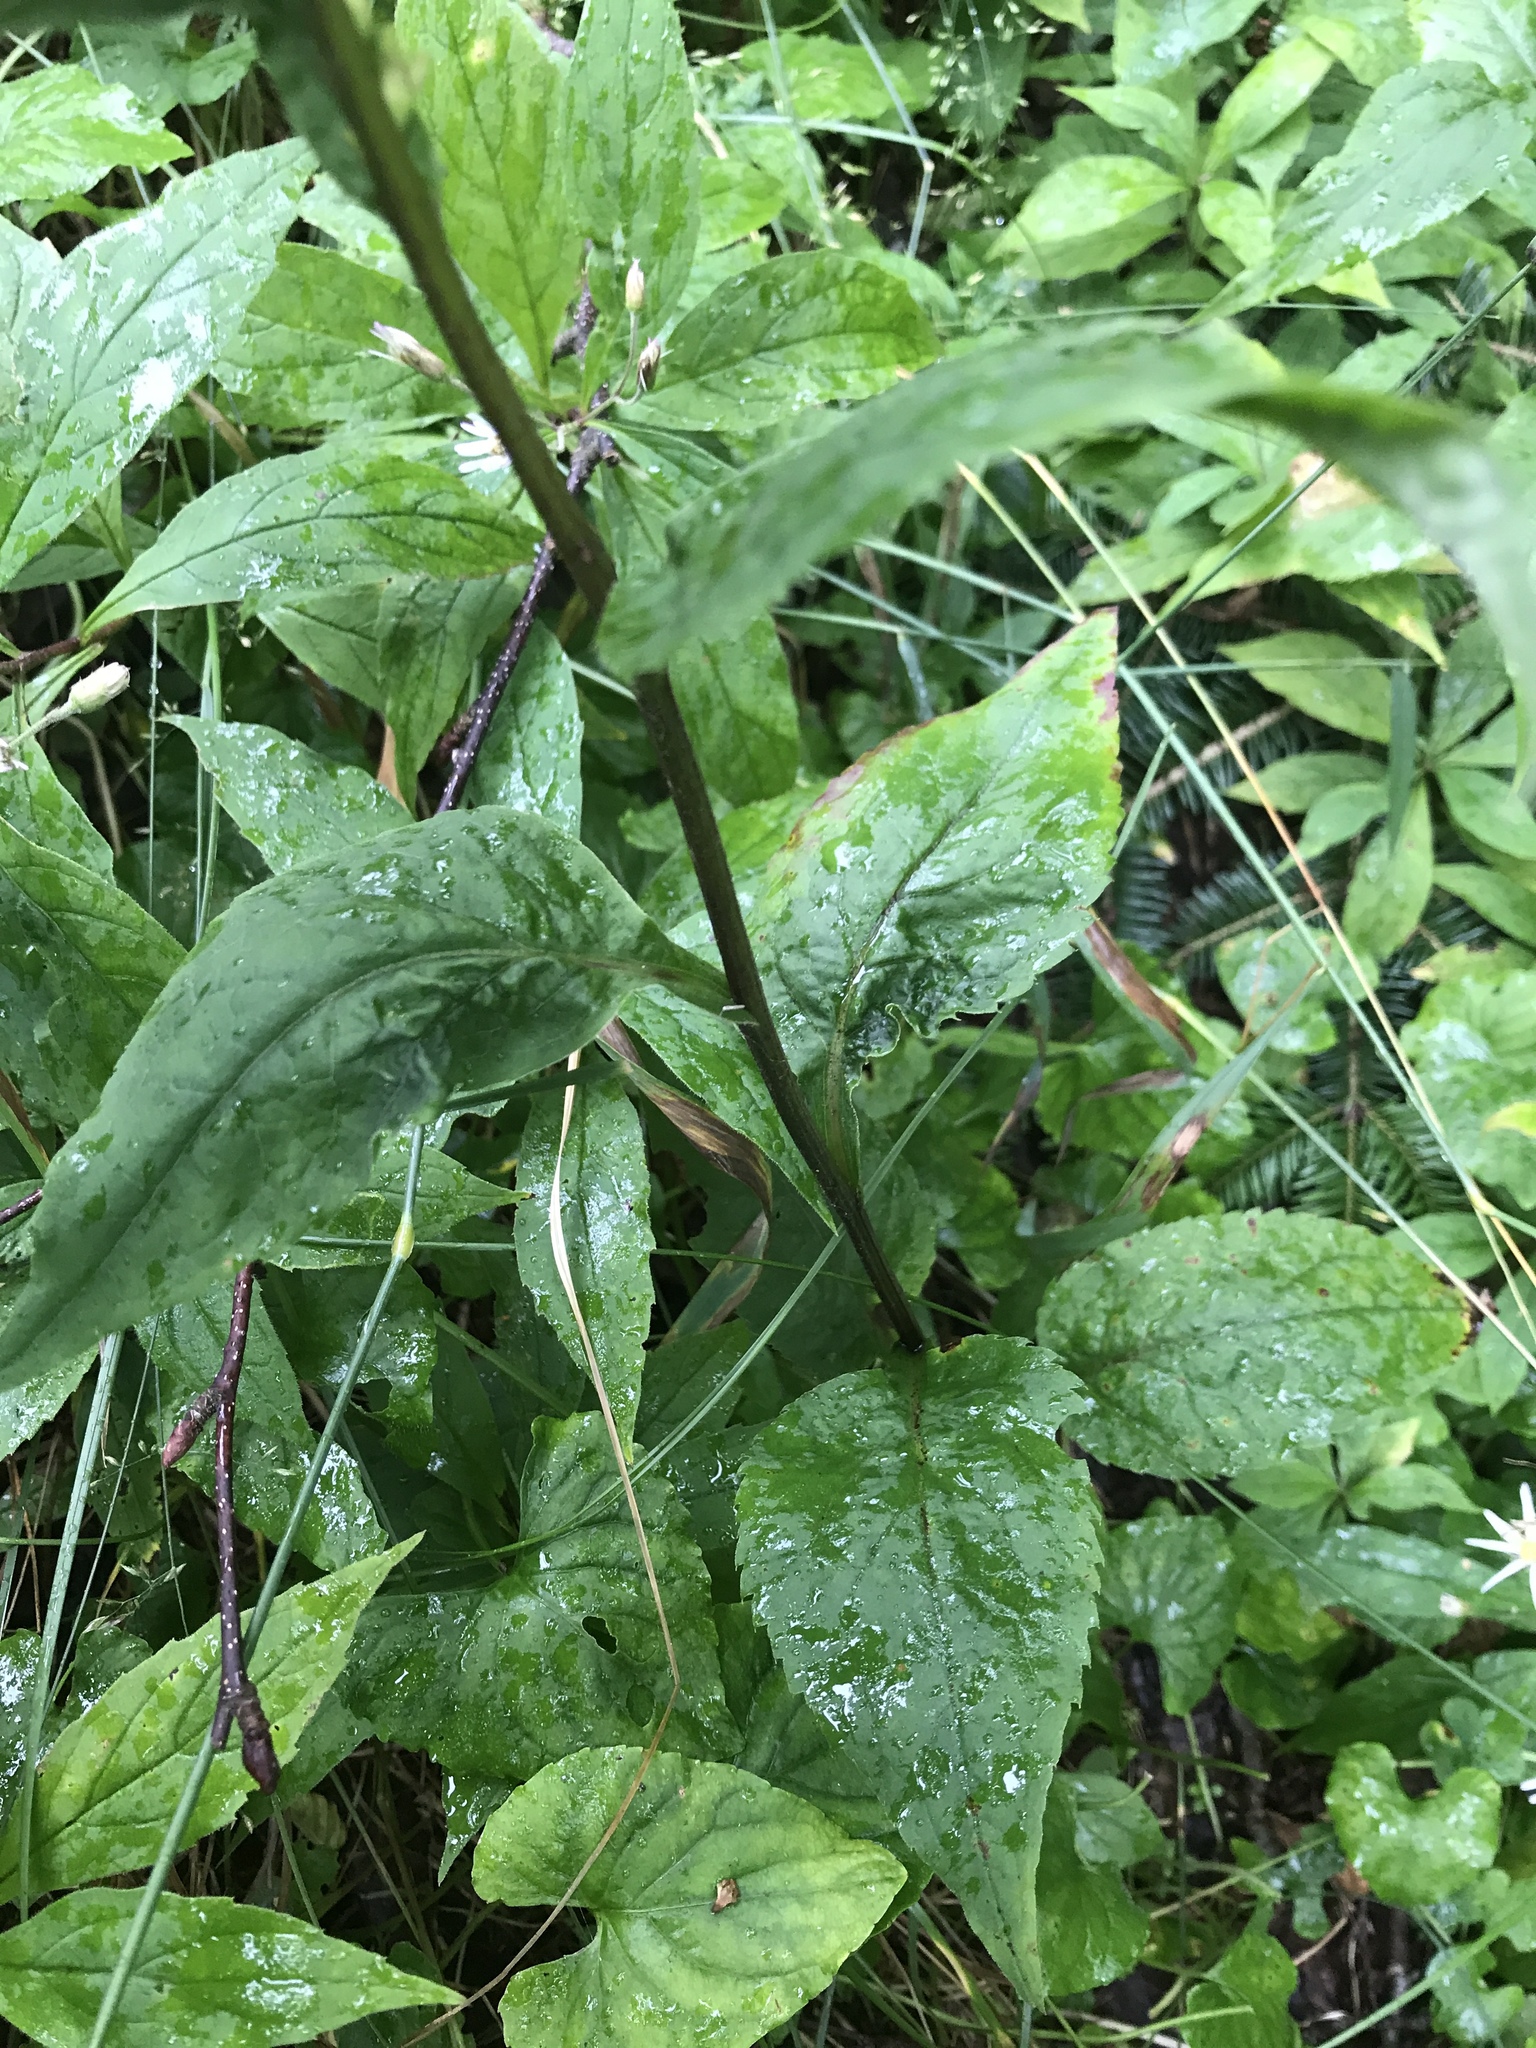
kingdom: Plantae
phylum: Tracheophyta
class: Magnoliopsida
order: Asterales
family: Asteraceae
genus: Solidago
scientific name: Solidago macrophylla
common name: Large-leaved goldenrod
